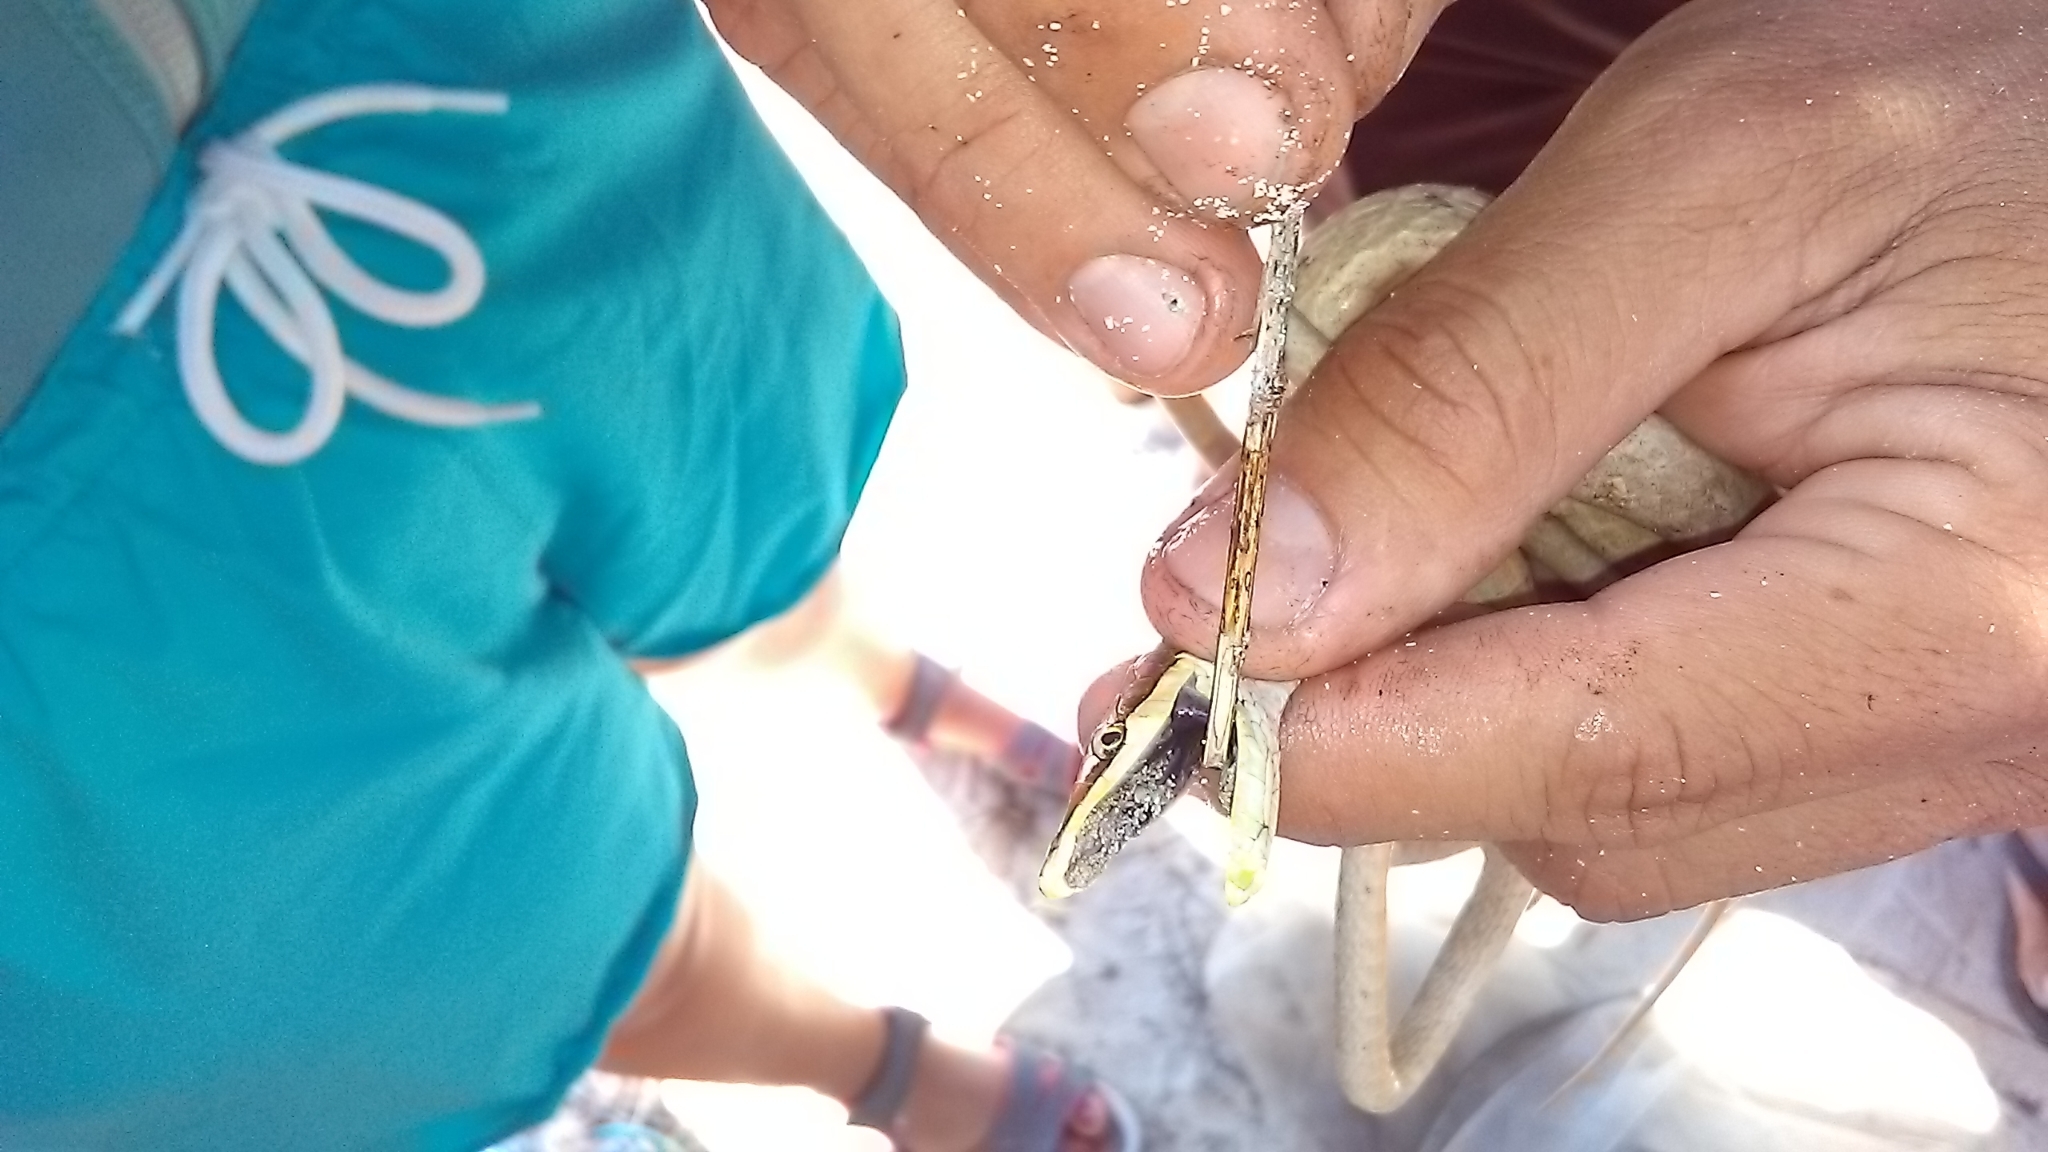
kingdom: Animalia
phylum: Chordata
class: Squamata
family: Colubridae
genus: Oxybelis
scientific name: Oxybelis potosiensis
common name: Gulf coast vine snake
